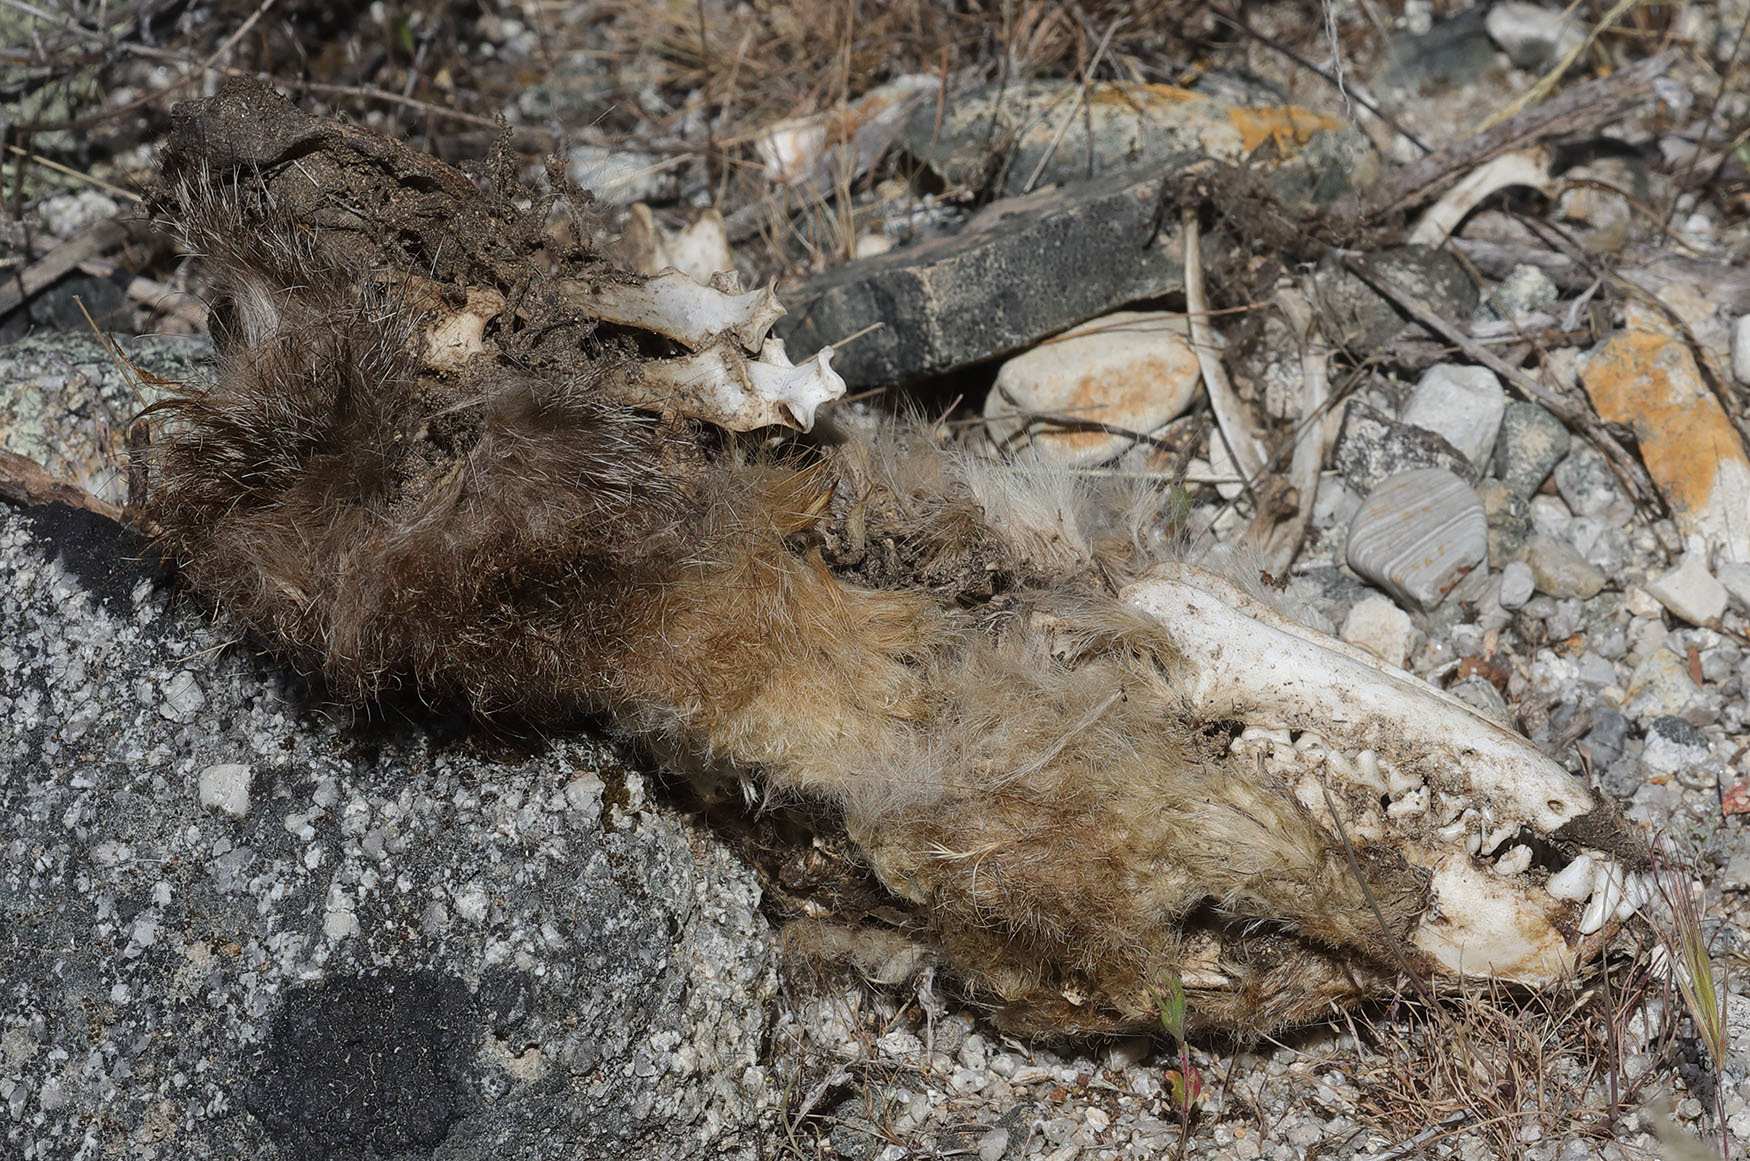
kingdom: Animalia
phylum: Chordata
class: Mammalia
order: Carnivora
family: Canidae
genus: Urocyon
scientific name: Urocyon cinereoargenteus
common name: Gray fox
